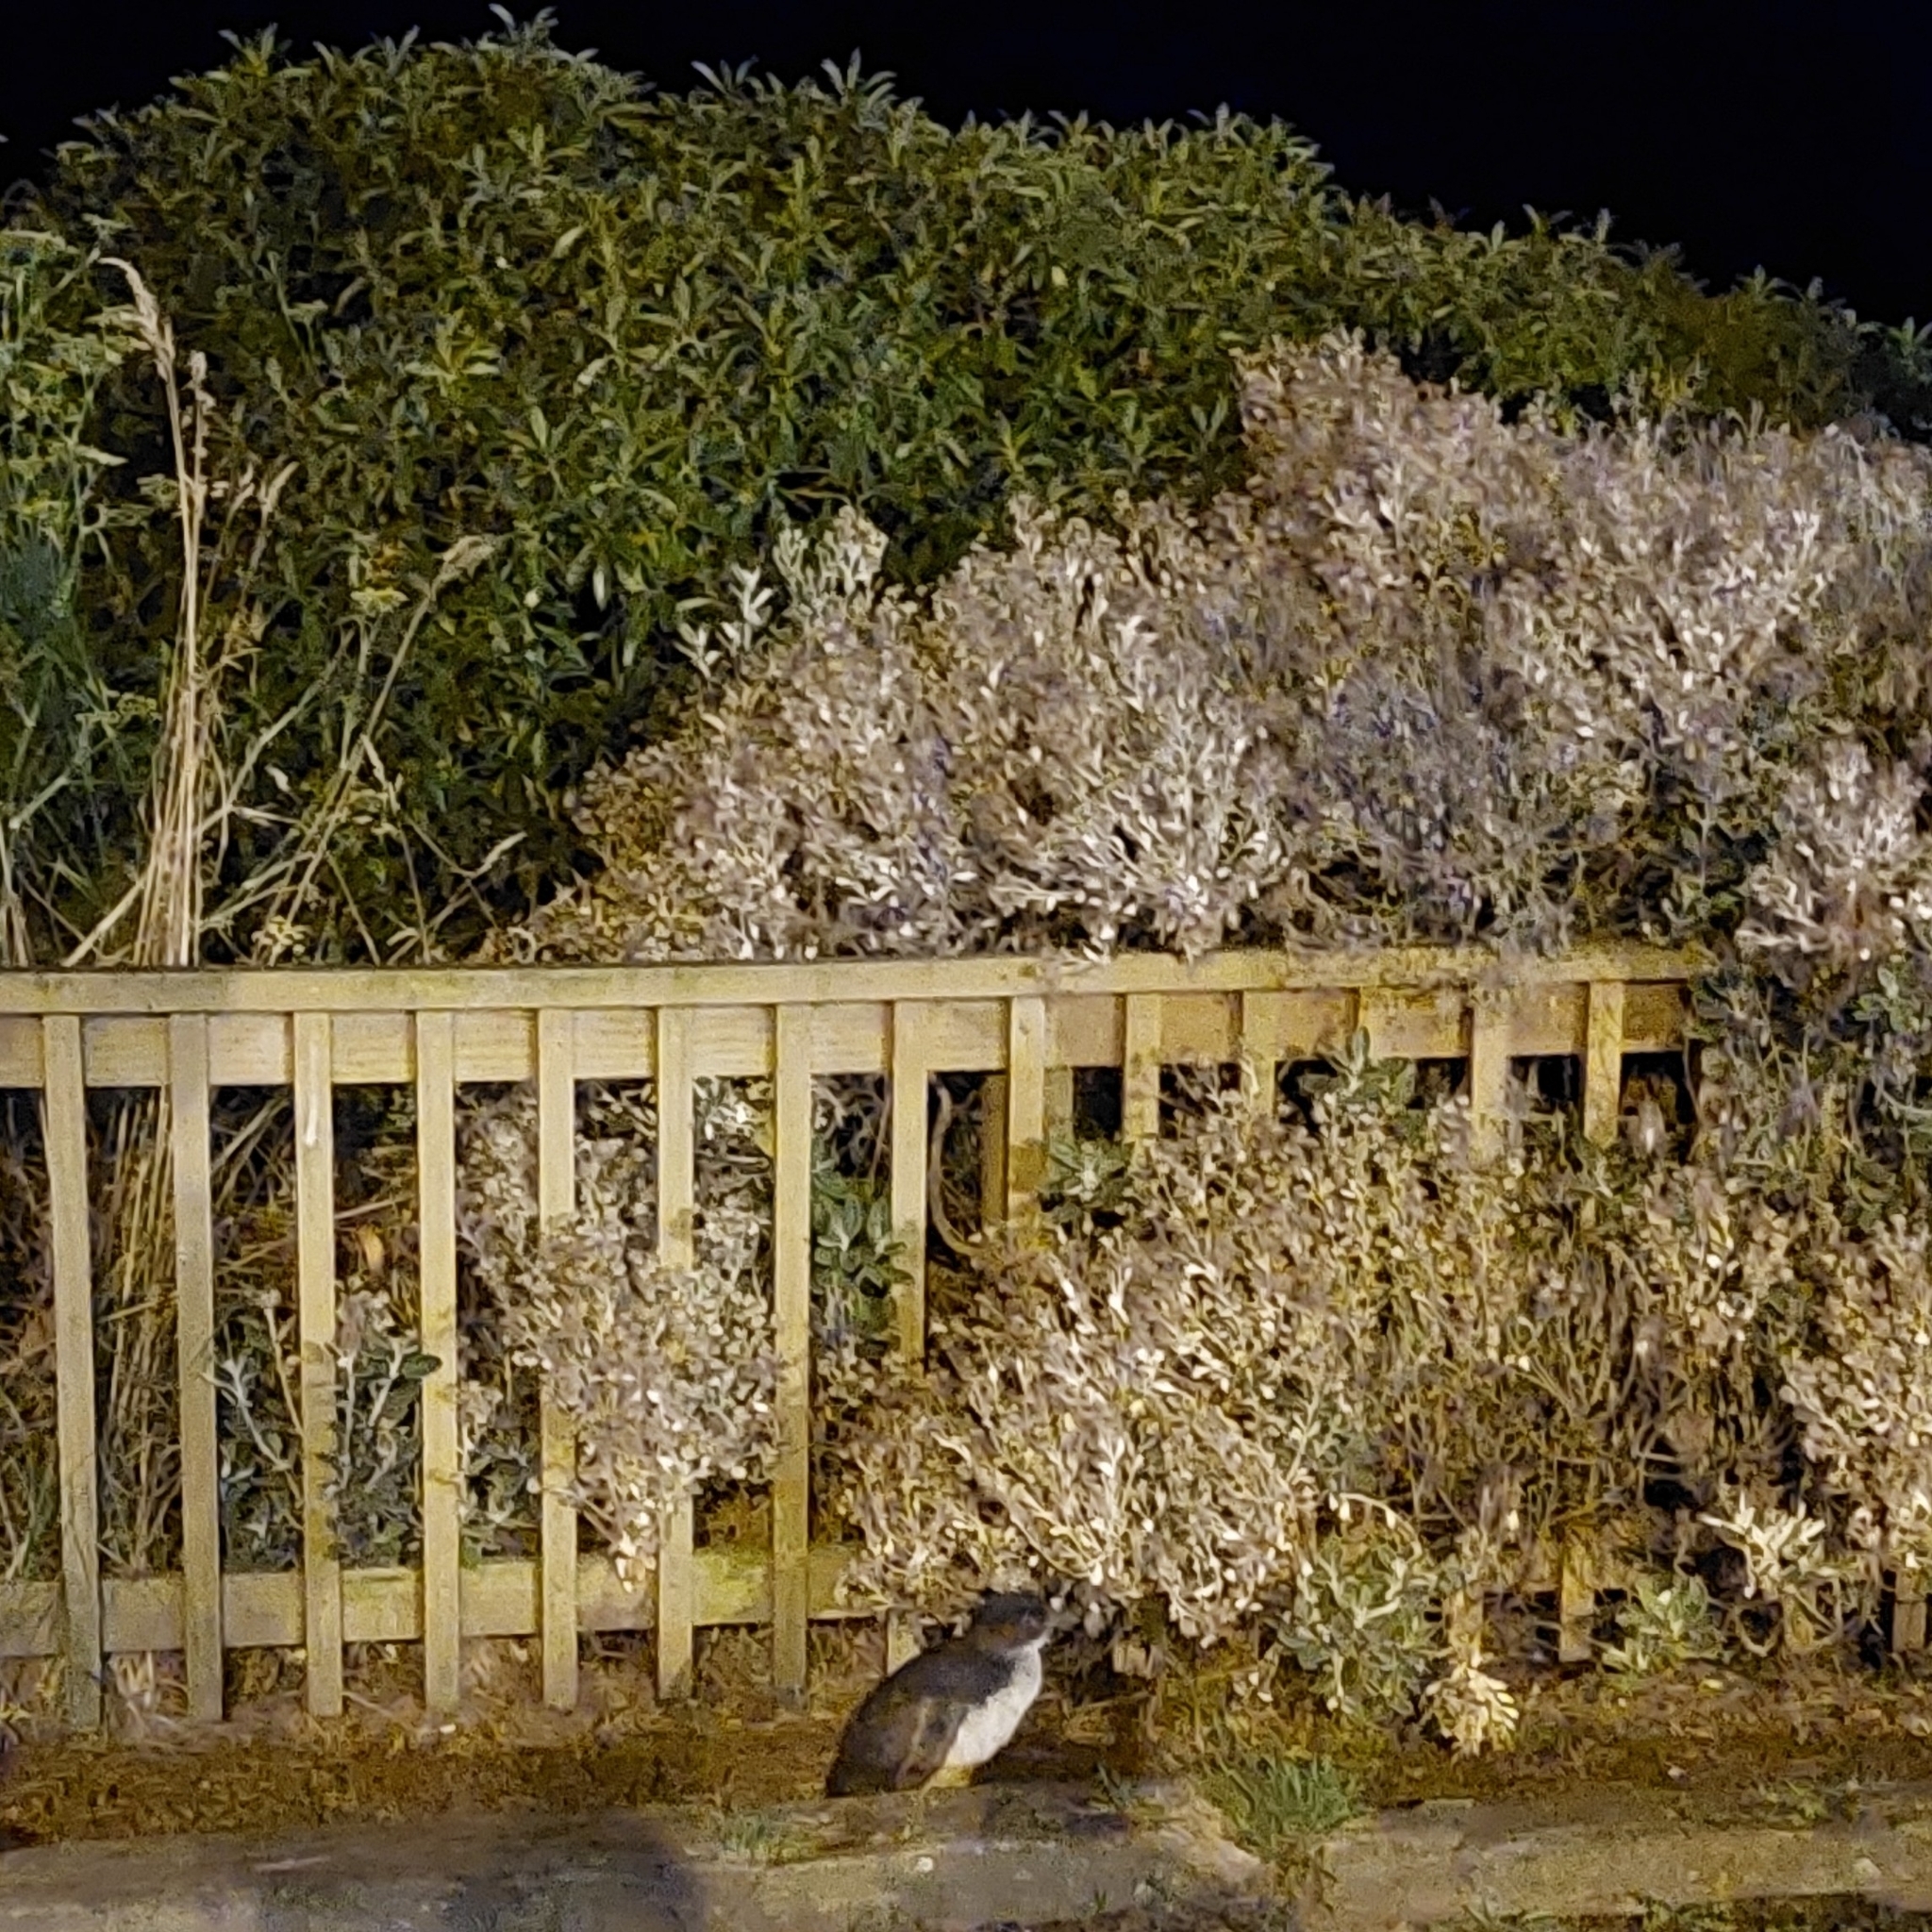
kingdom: Animalia
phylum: Chordata
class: Aves
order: Sphenisciformes
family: Spheniscidae
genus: Eudyptula
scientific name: Eudyptula minor
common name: Little penguin
